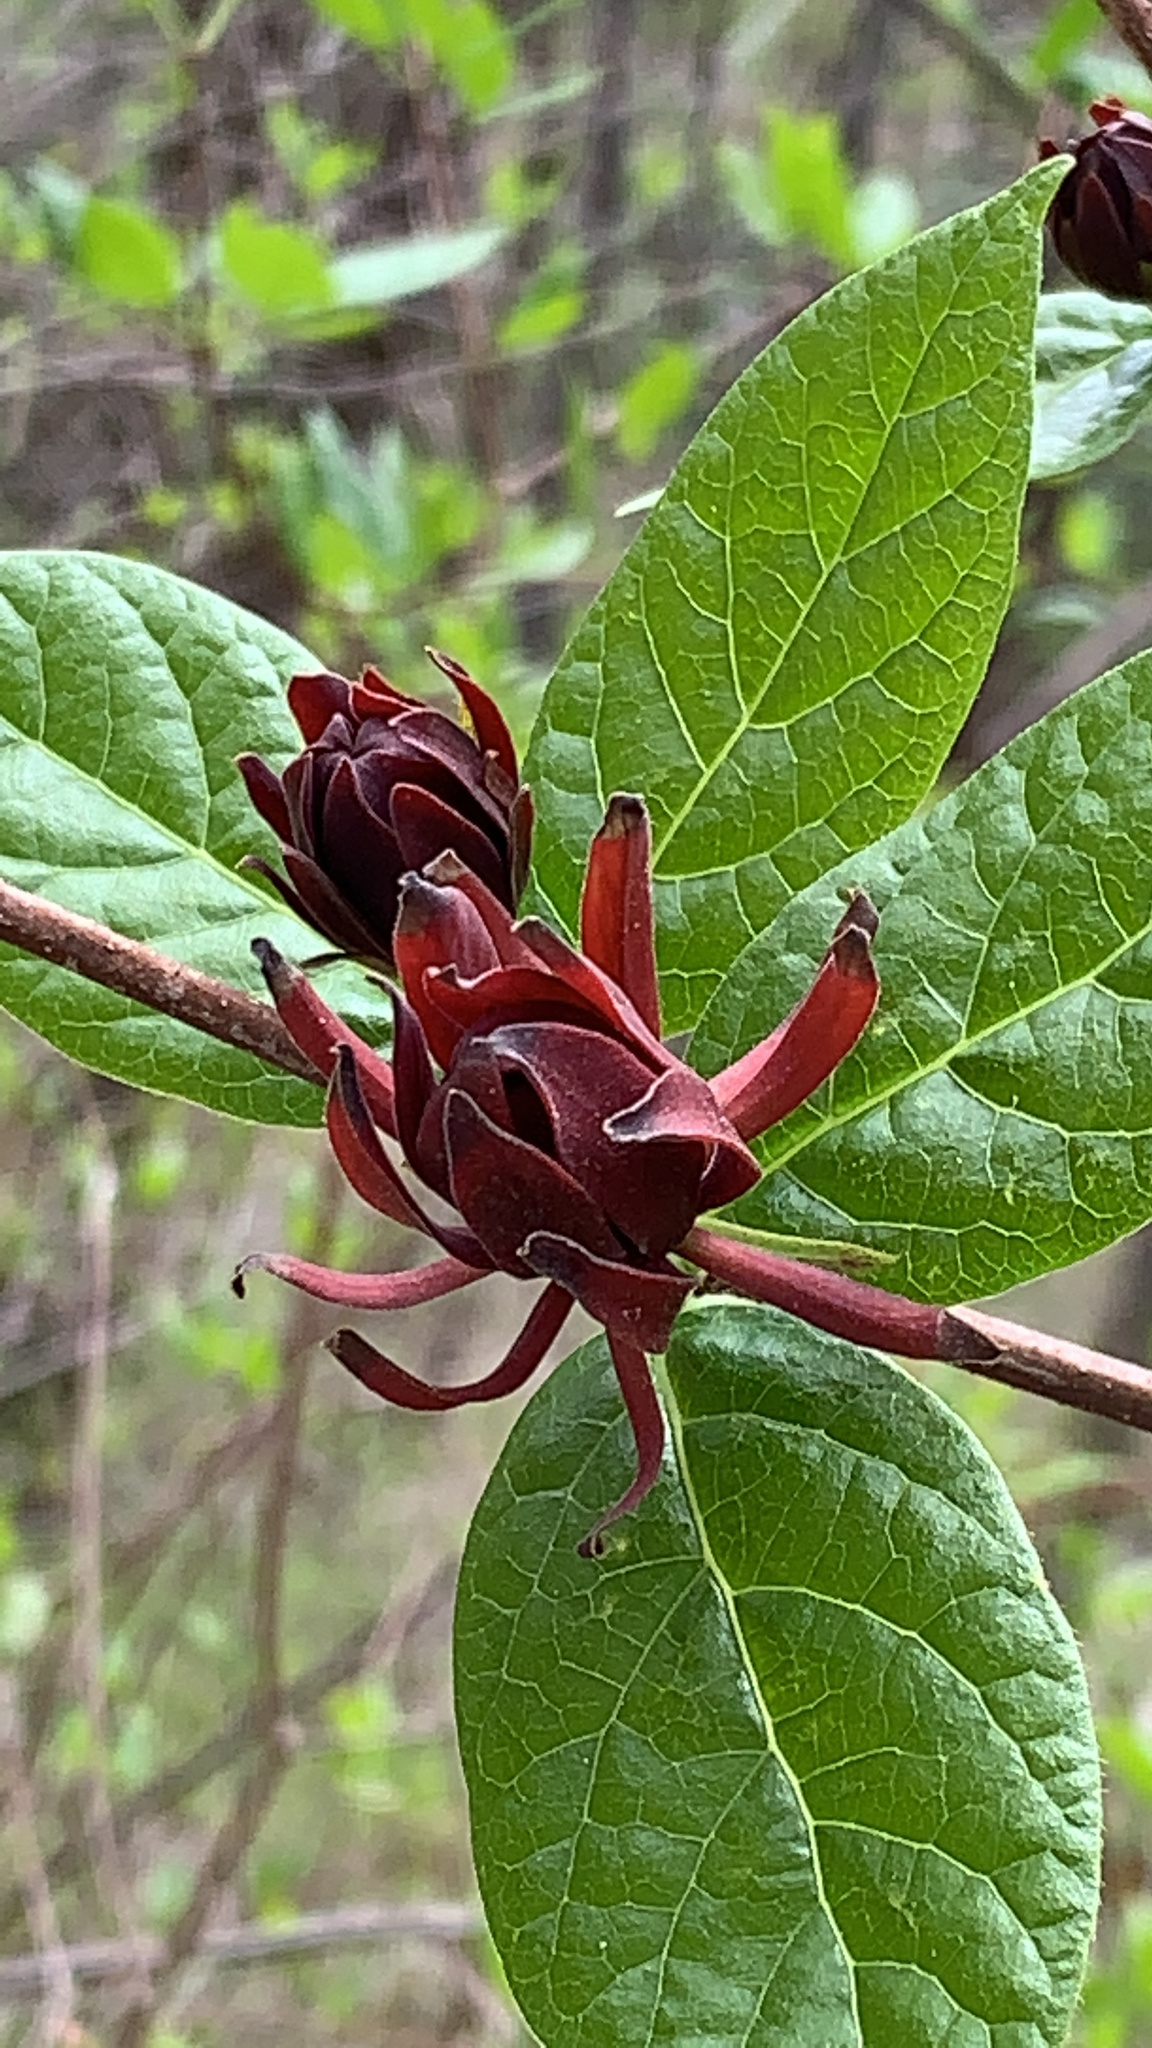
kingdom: Plantae
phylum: Tracheophyta
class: Magnoliopsida
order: Laurales
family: Calycanthaceae
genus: Calycanthus
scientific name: Calycanthus floridus
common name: Carolina-allspice
